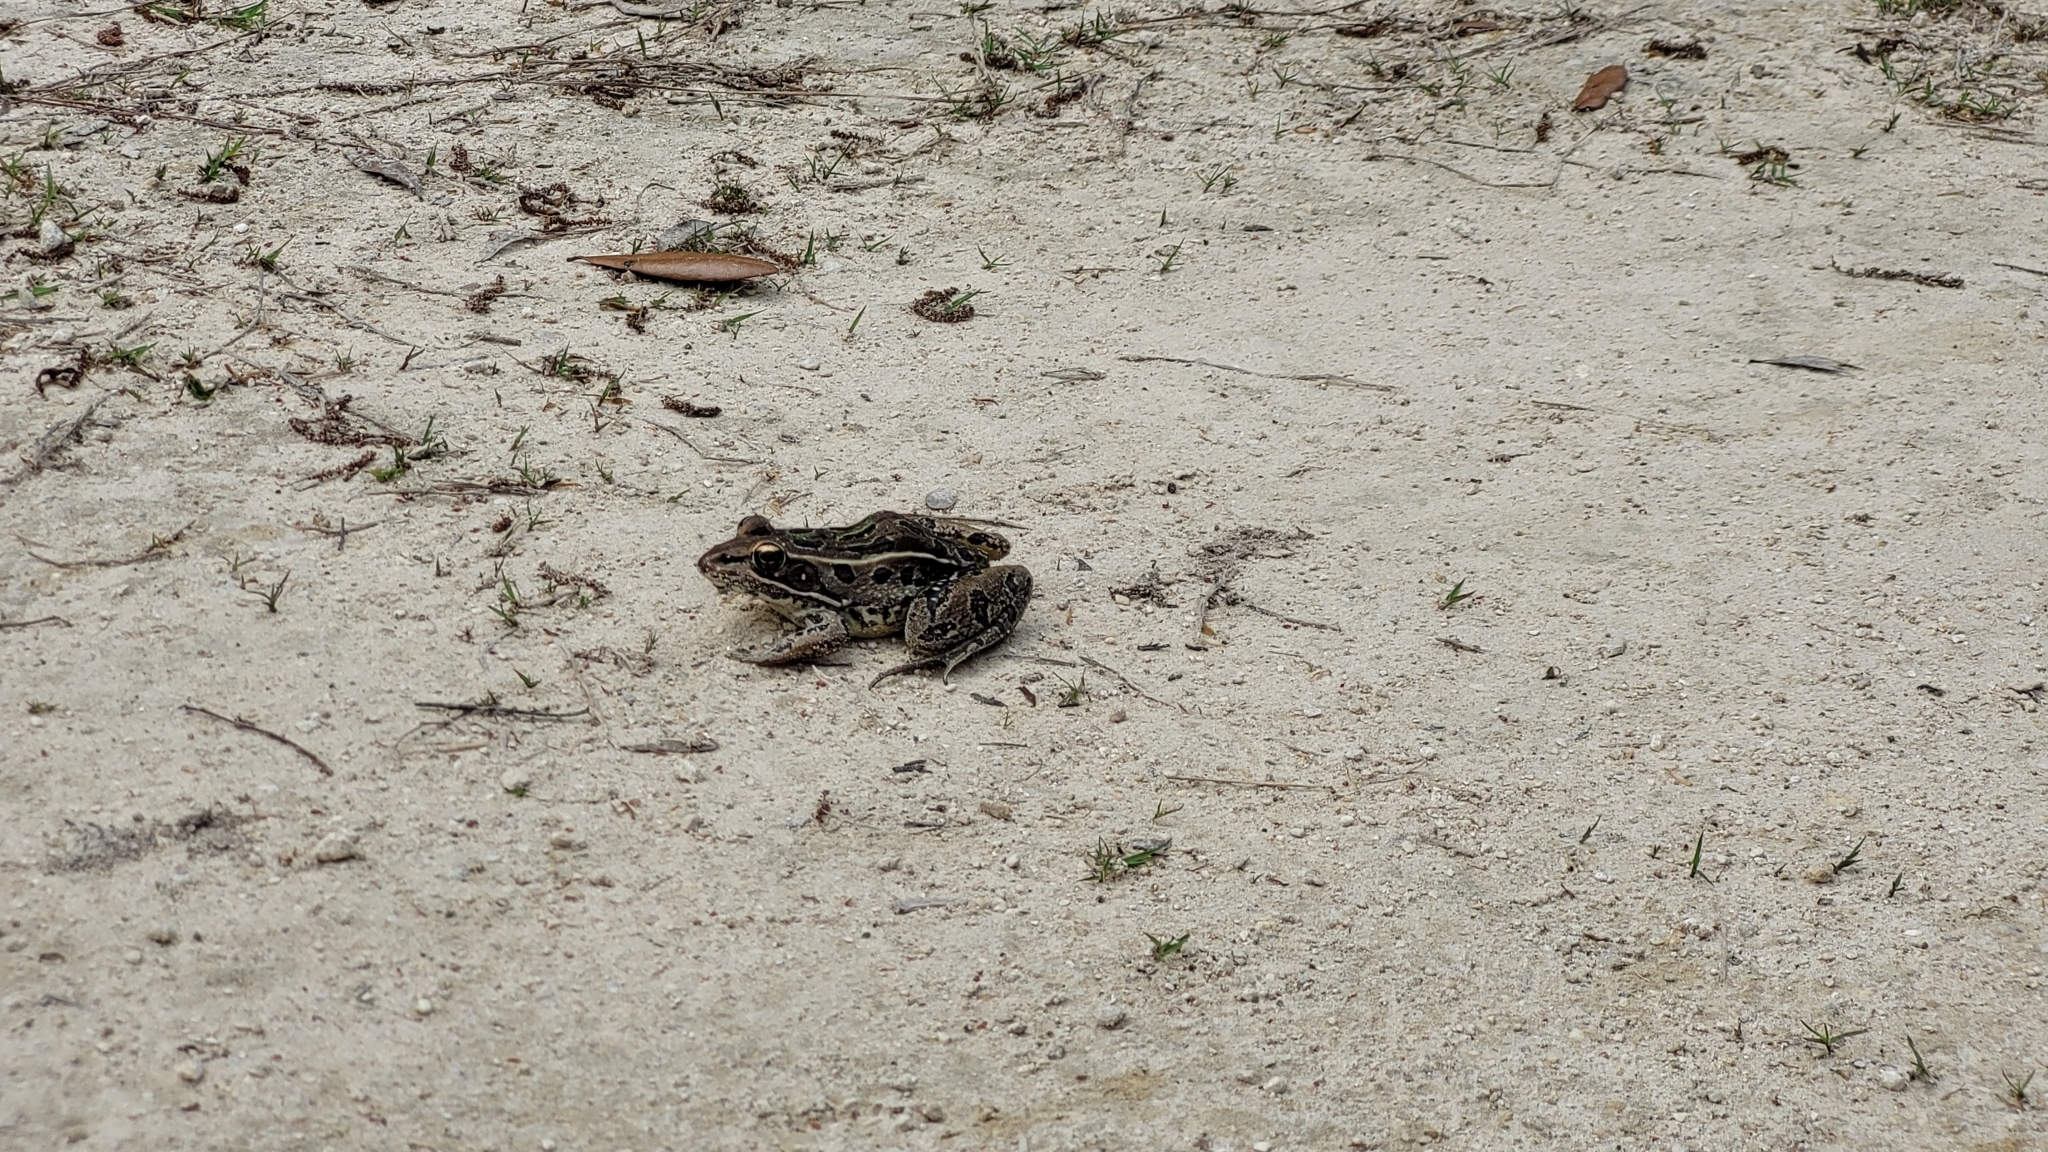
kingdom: Animalia
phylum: Chordata
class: Amphibia
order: Anura
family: Ranidae
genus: Lithobates
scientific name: Lithobates sphenocephalus
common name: Southern leopard frog
